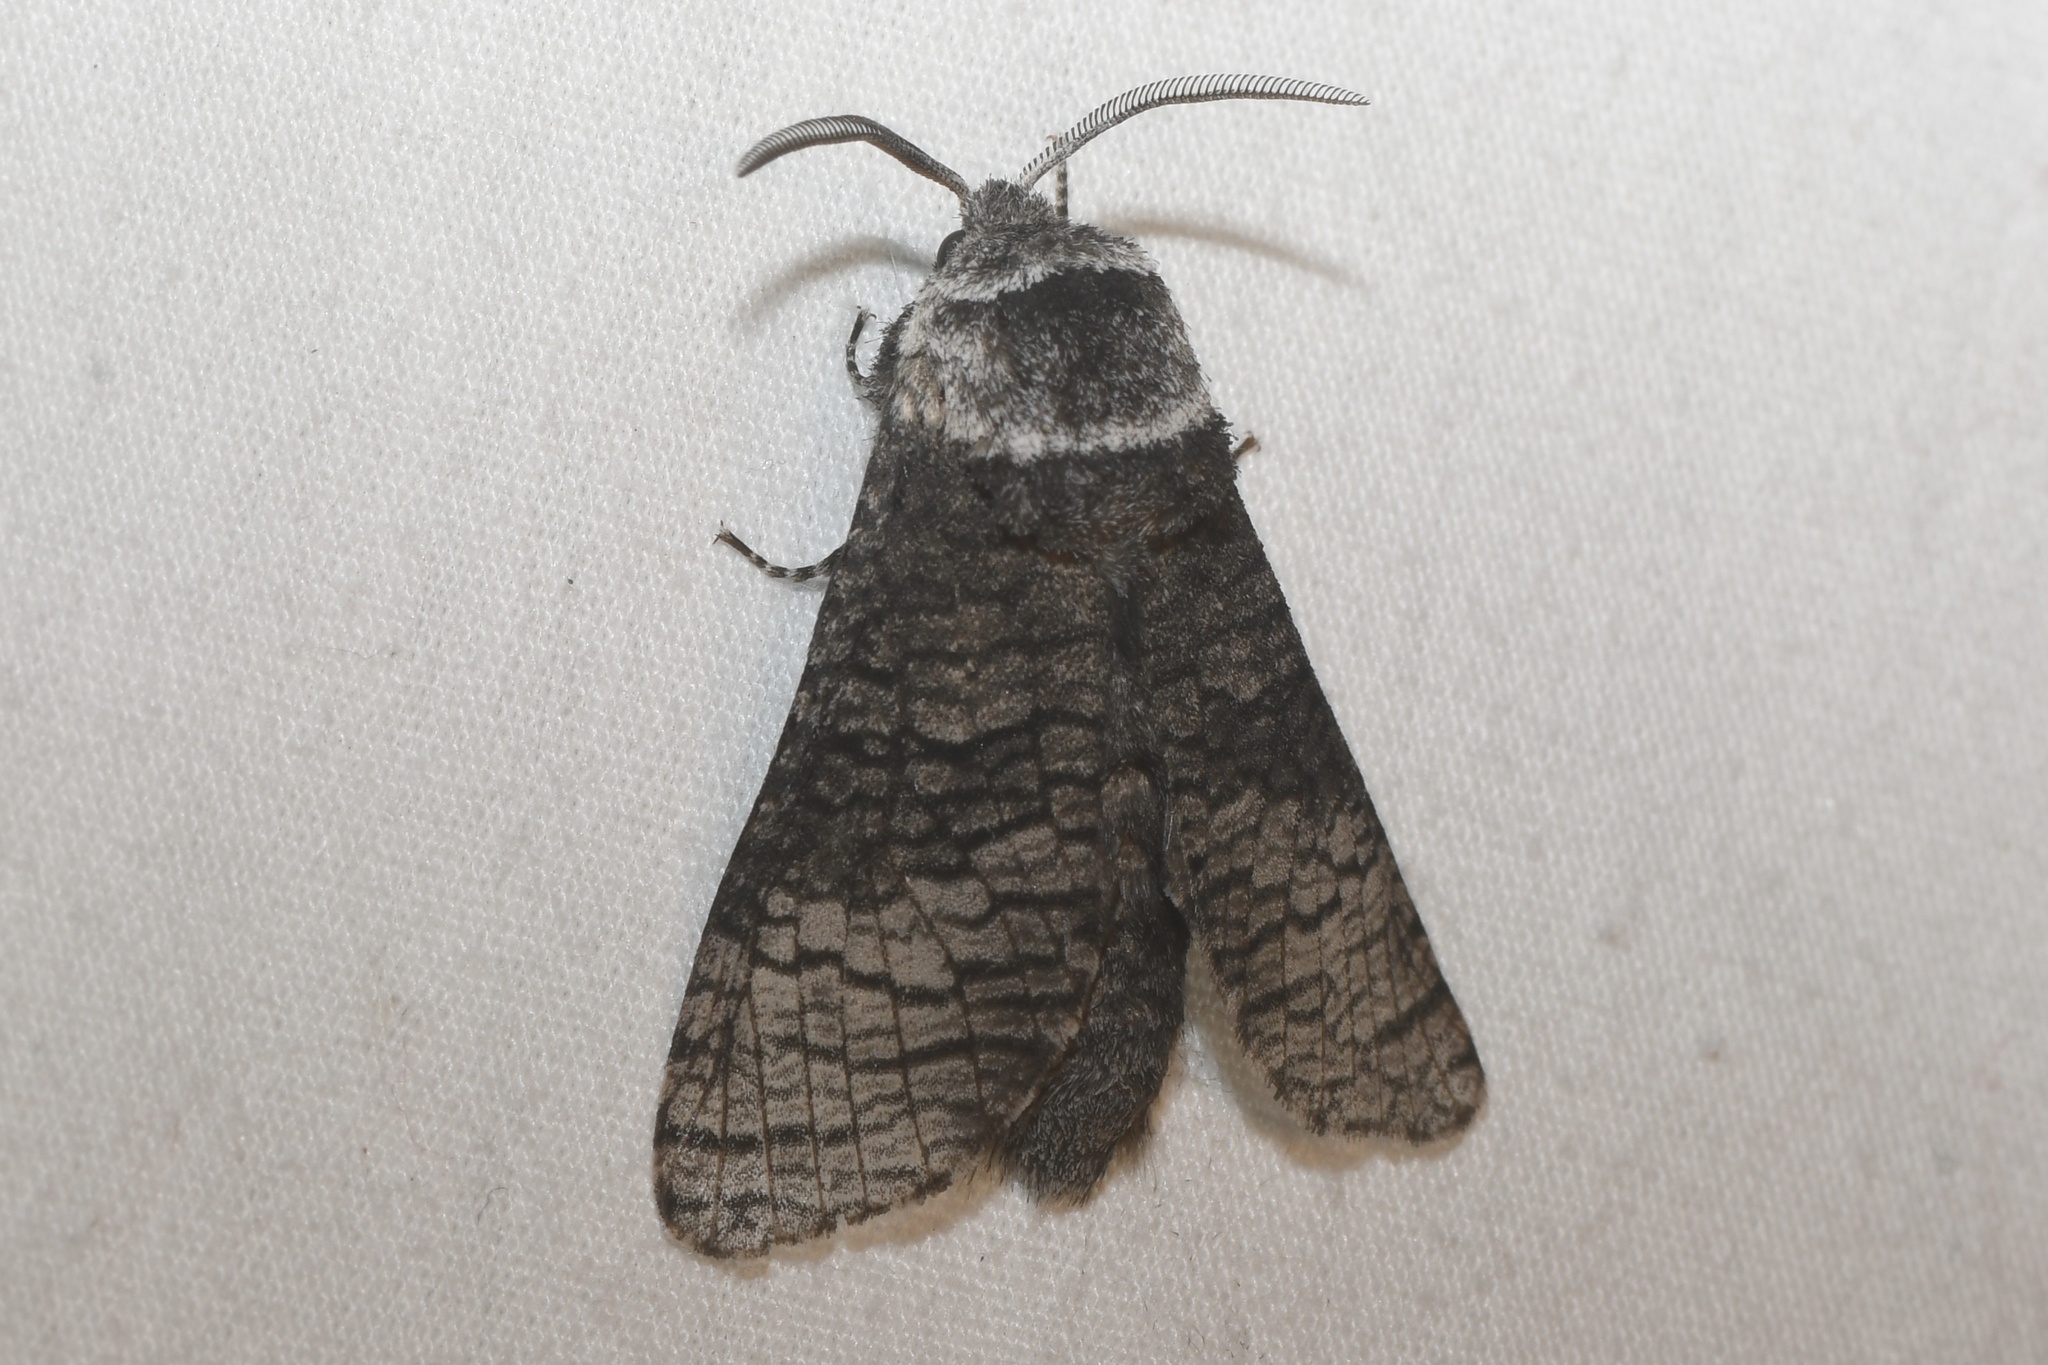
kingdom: Animalia
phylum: Arthropoda
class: Insecta
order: Lepidoptera
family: Cossidae
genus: Acossus
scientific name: Acossus centerensis
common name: Poplar carpenterworm moth
